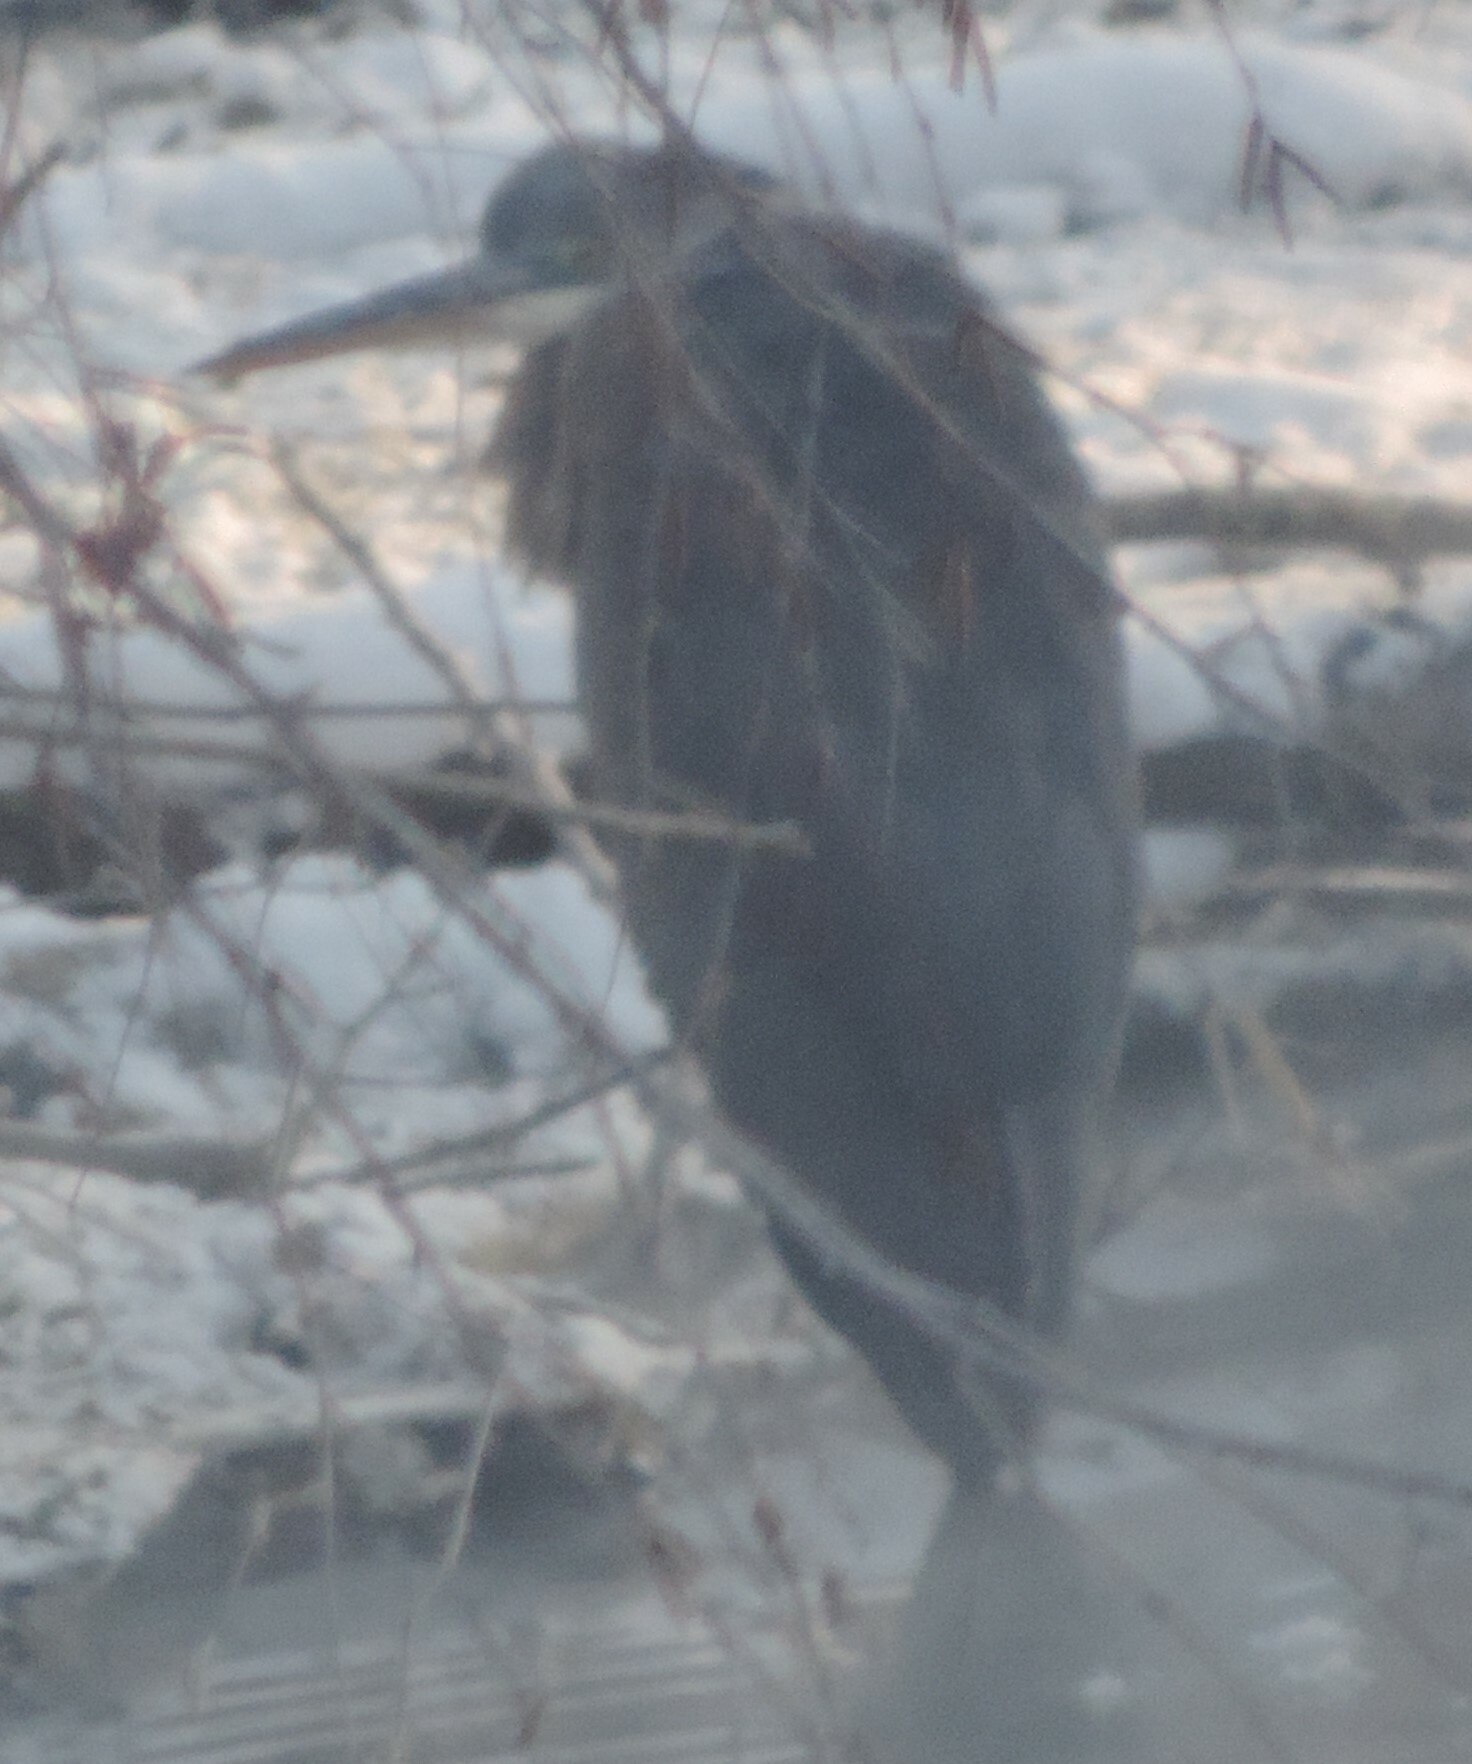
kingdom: Animalia
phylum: Chordata
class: Aves
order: Pelecaniformes
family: Ardeidae
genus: Ardea
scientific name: Ardea herodias
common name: Great blue heron
